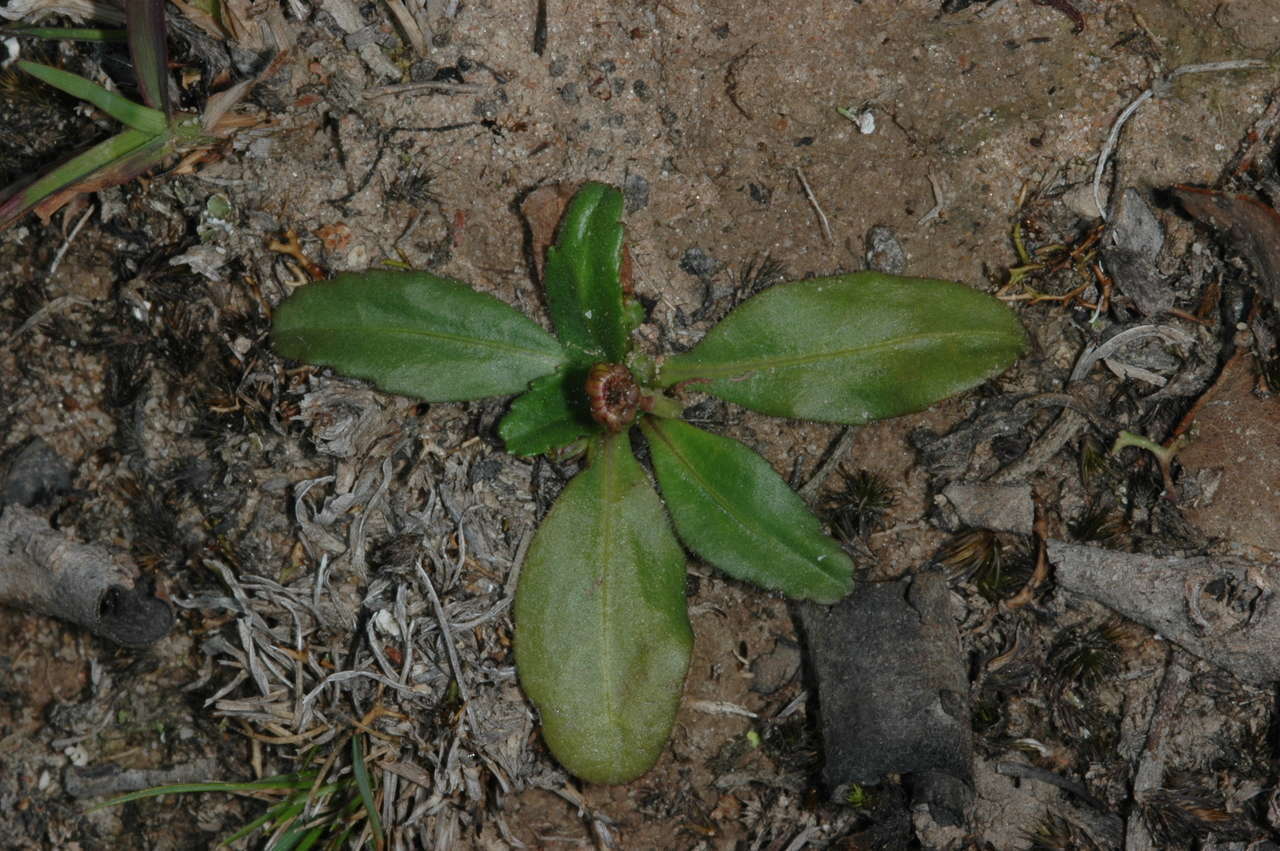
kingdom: Plantae
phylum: Tracheophyta
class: Magnoliopsida
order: Asterales
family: Asteraceae
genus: Solenogyne
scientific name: Solenogyne dominii
